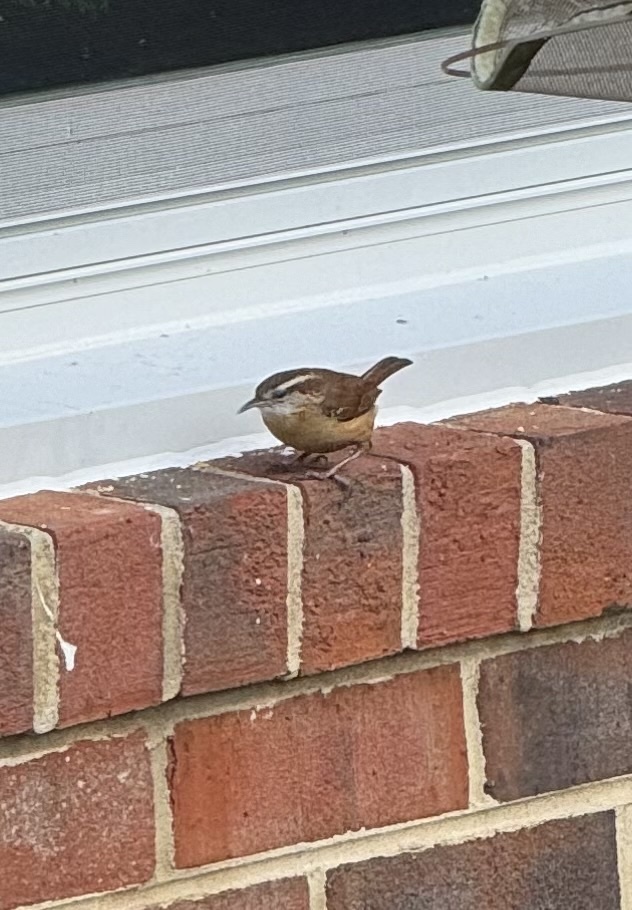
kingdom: Animalia
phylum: Chordata
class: Aves
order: Passeriformes
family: Troglodytidae
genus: Thryothorus
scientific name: Thryothorus ludovicianus
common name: Carolina wren
